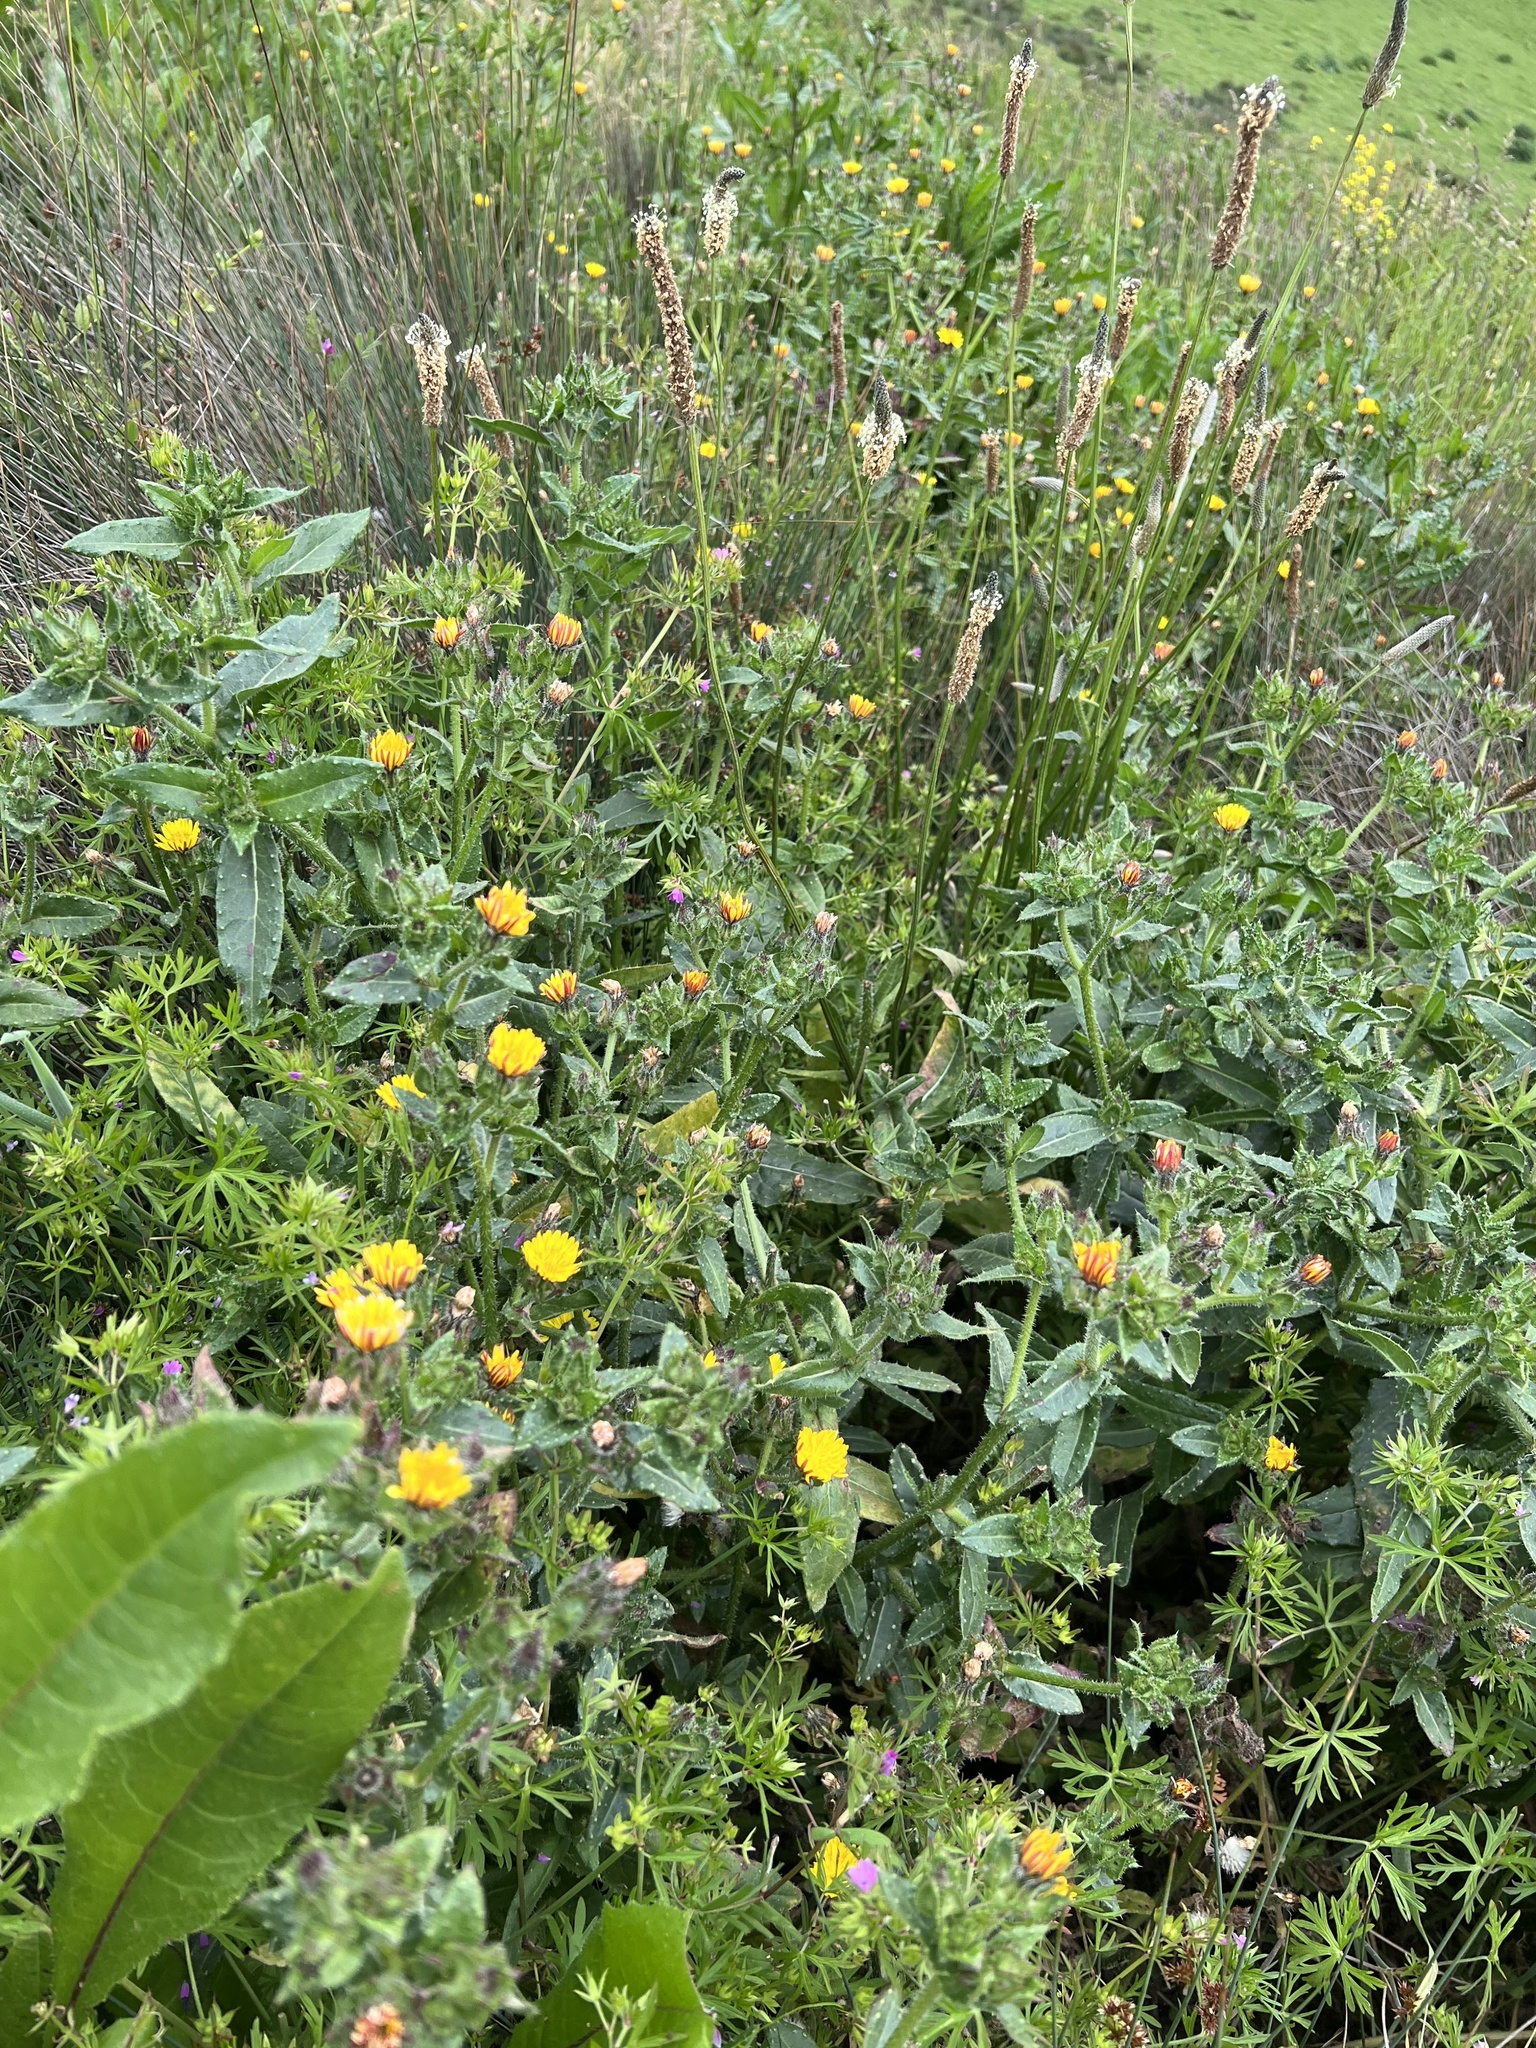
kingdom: Plantae
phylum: Tracheophyta
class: Magnoliopsida
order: Asterales
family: Asteraceae
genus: Helminthotheca
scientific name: Helminthotheca echioides
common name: Ox-tongue
